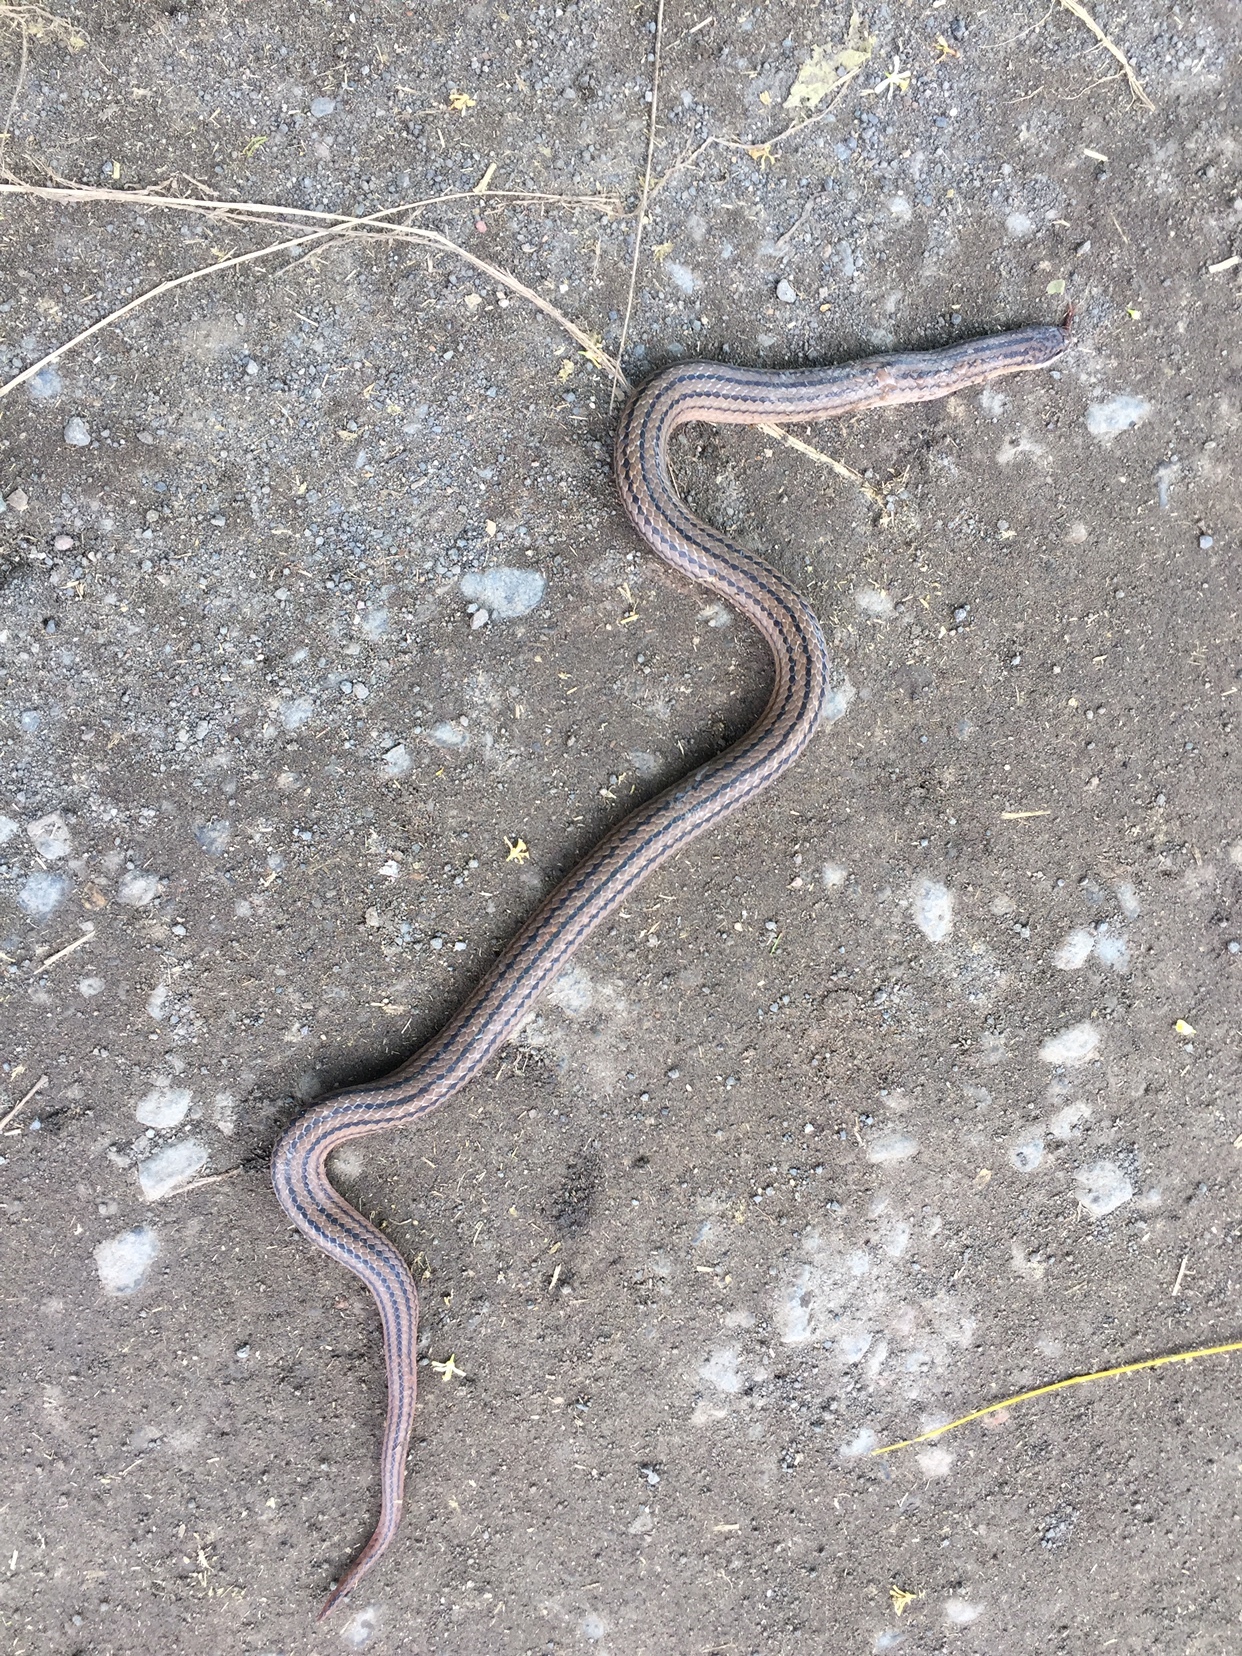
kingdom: Animalia
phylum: Chordata
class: Squamata
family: Colubridae
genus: Stenorrhina
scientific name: Stenorrhina freminvillei
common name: Blood snake
